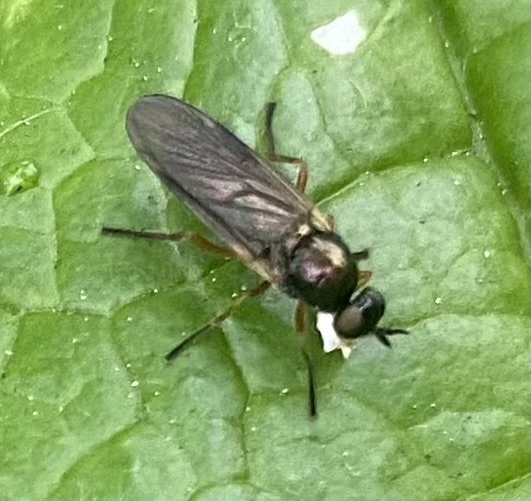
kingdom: Animalia
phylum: Arthropoda
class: Insecta
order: Diptera
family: Stratiomyidae
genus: Beris
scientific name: Beris chalybata
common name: Murky-legged black legionnaire
